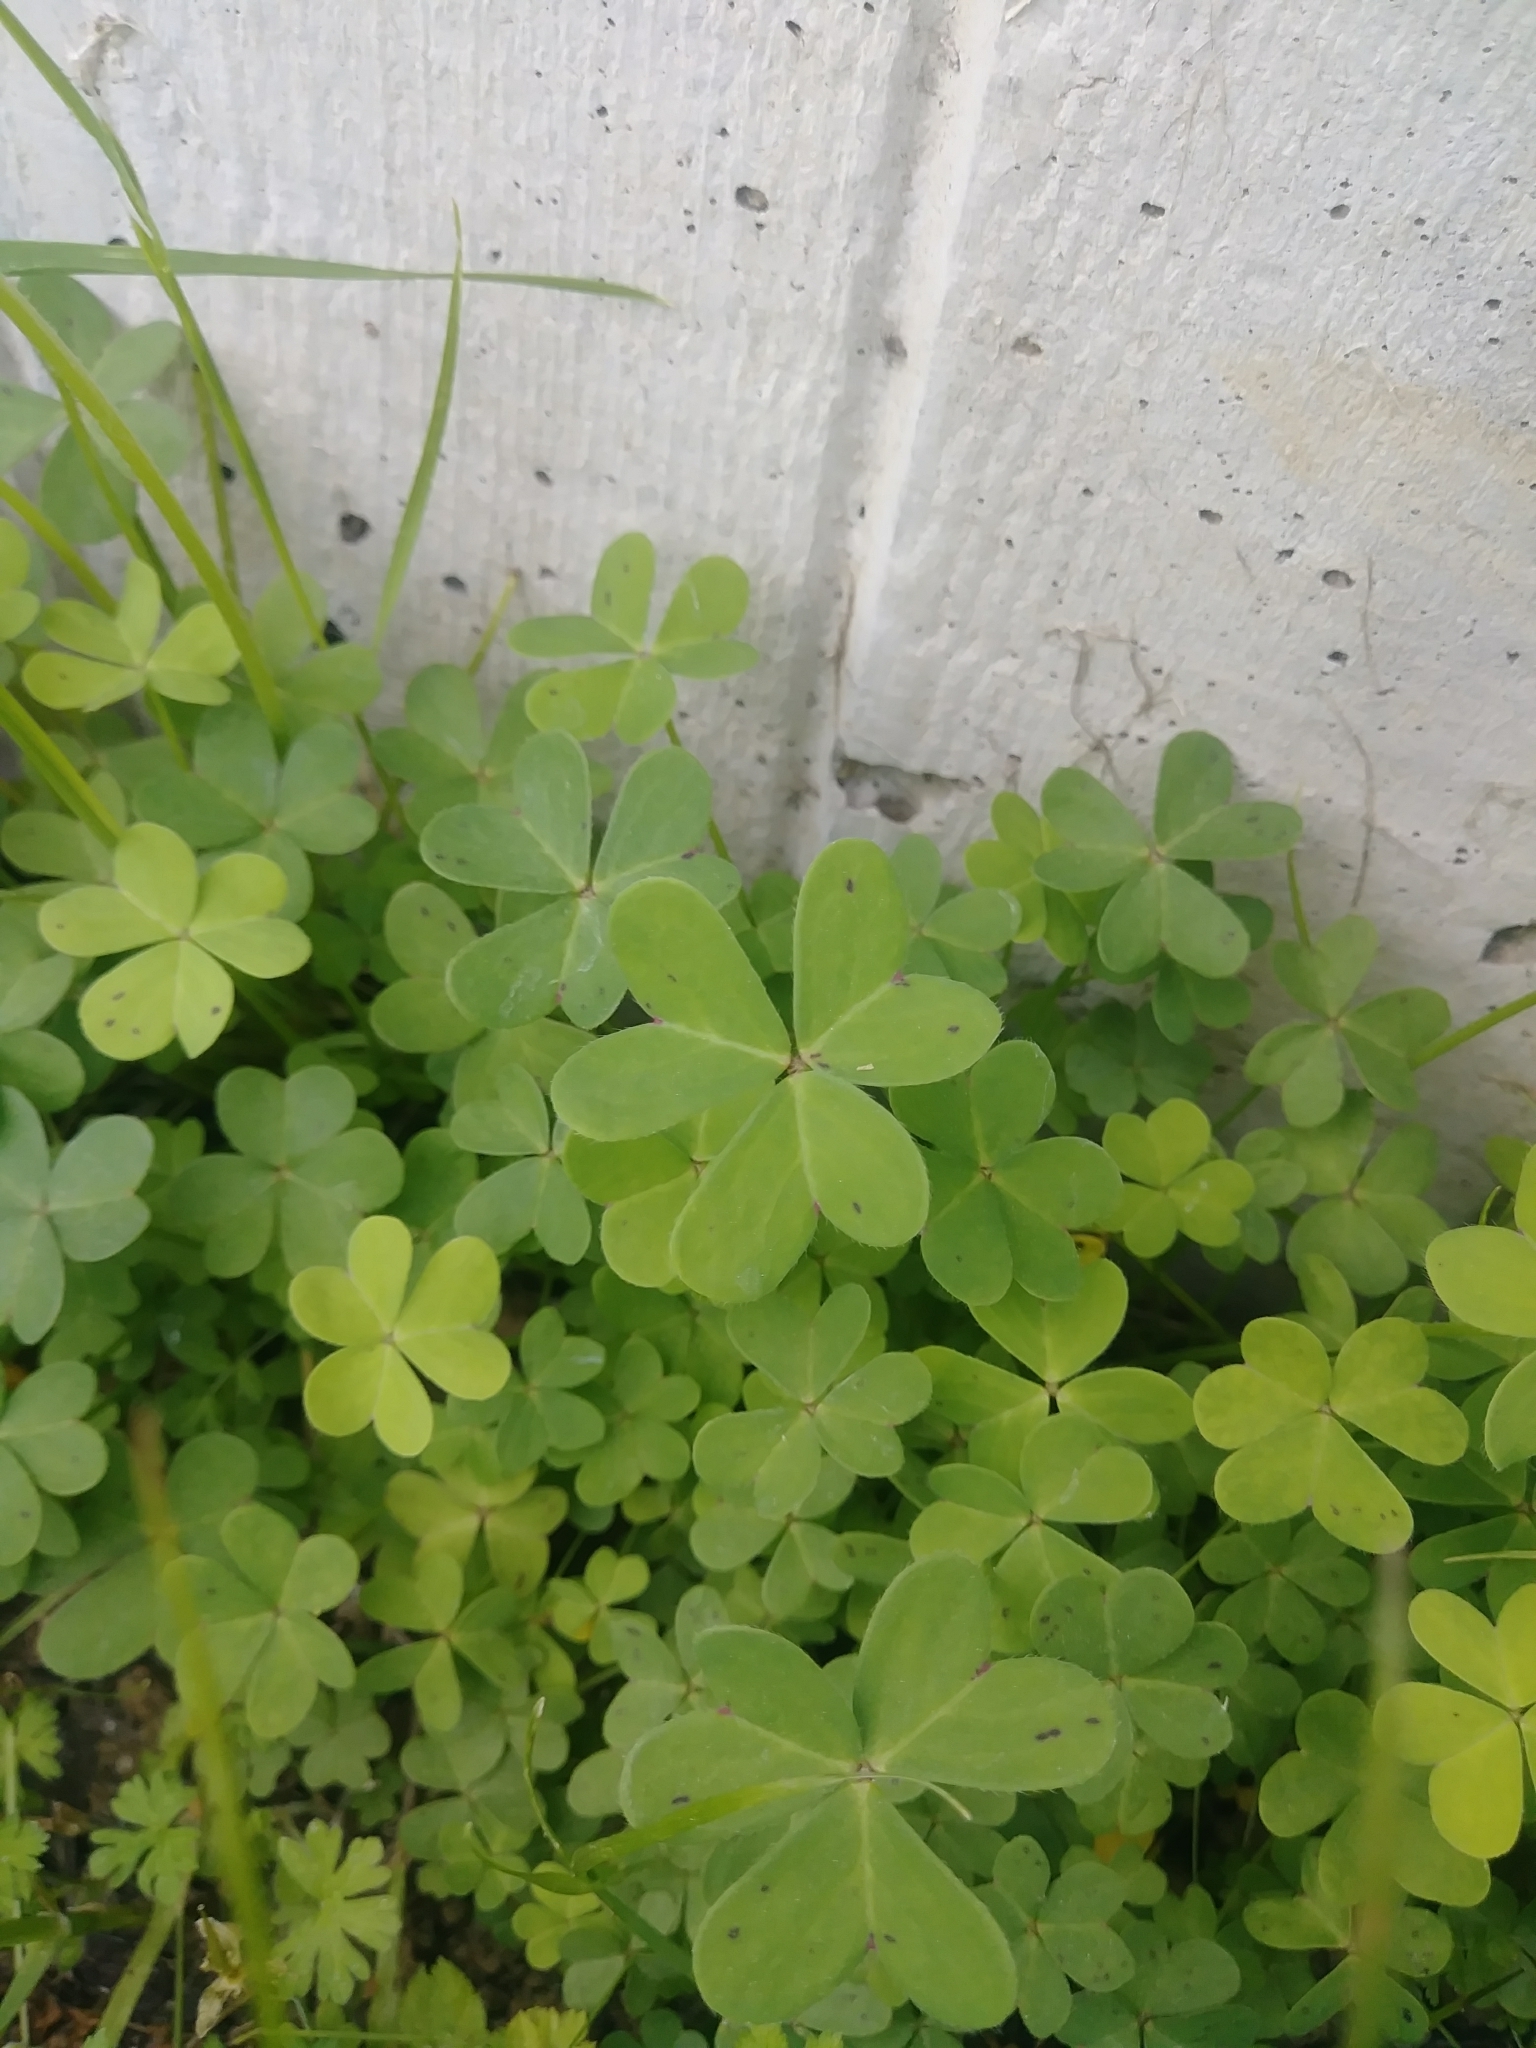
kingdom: Plantae
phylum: Tracheophyta
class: Magnoliopsida
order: Oxalidales
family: Oxalidaceae
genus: Oxalis
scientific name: Oxalis pes-caprae
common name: Bermuda-buttercup
